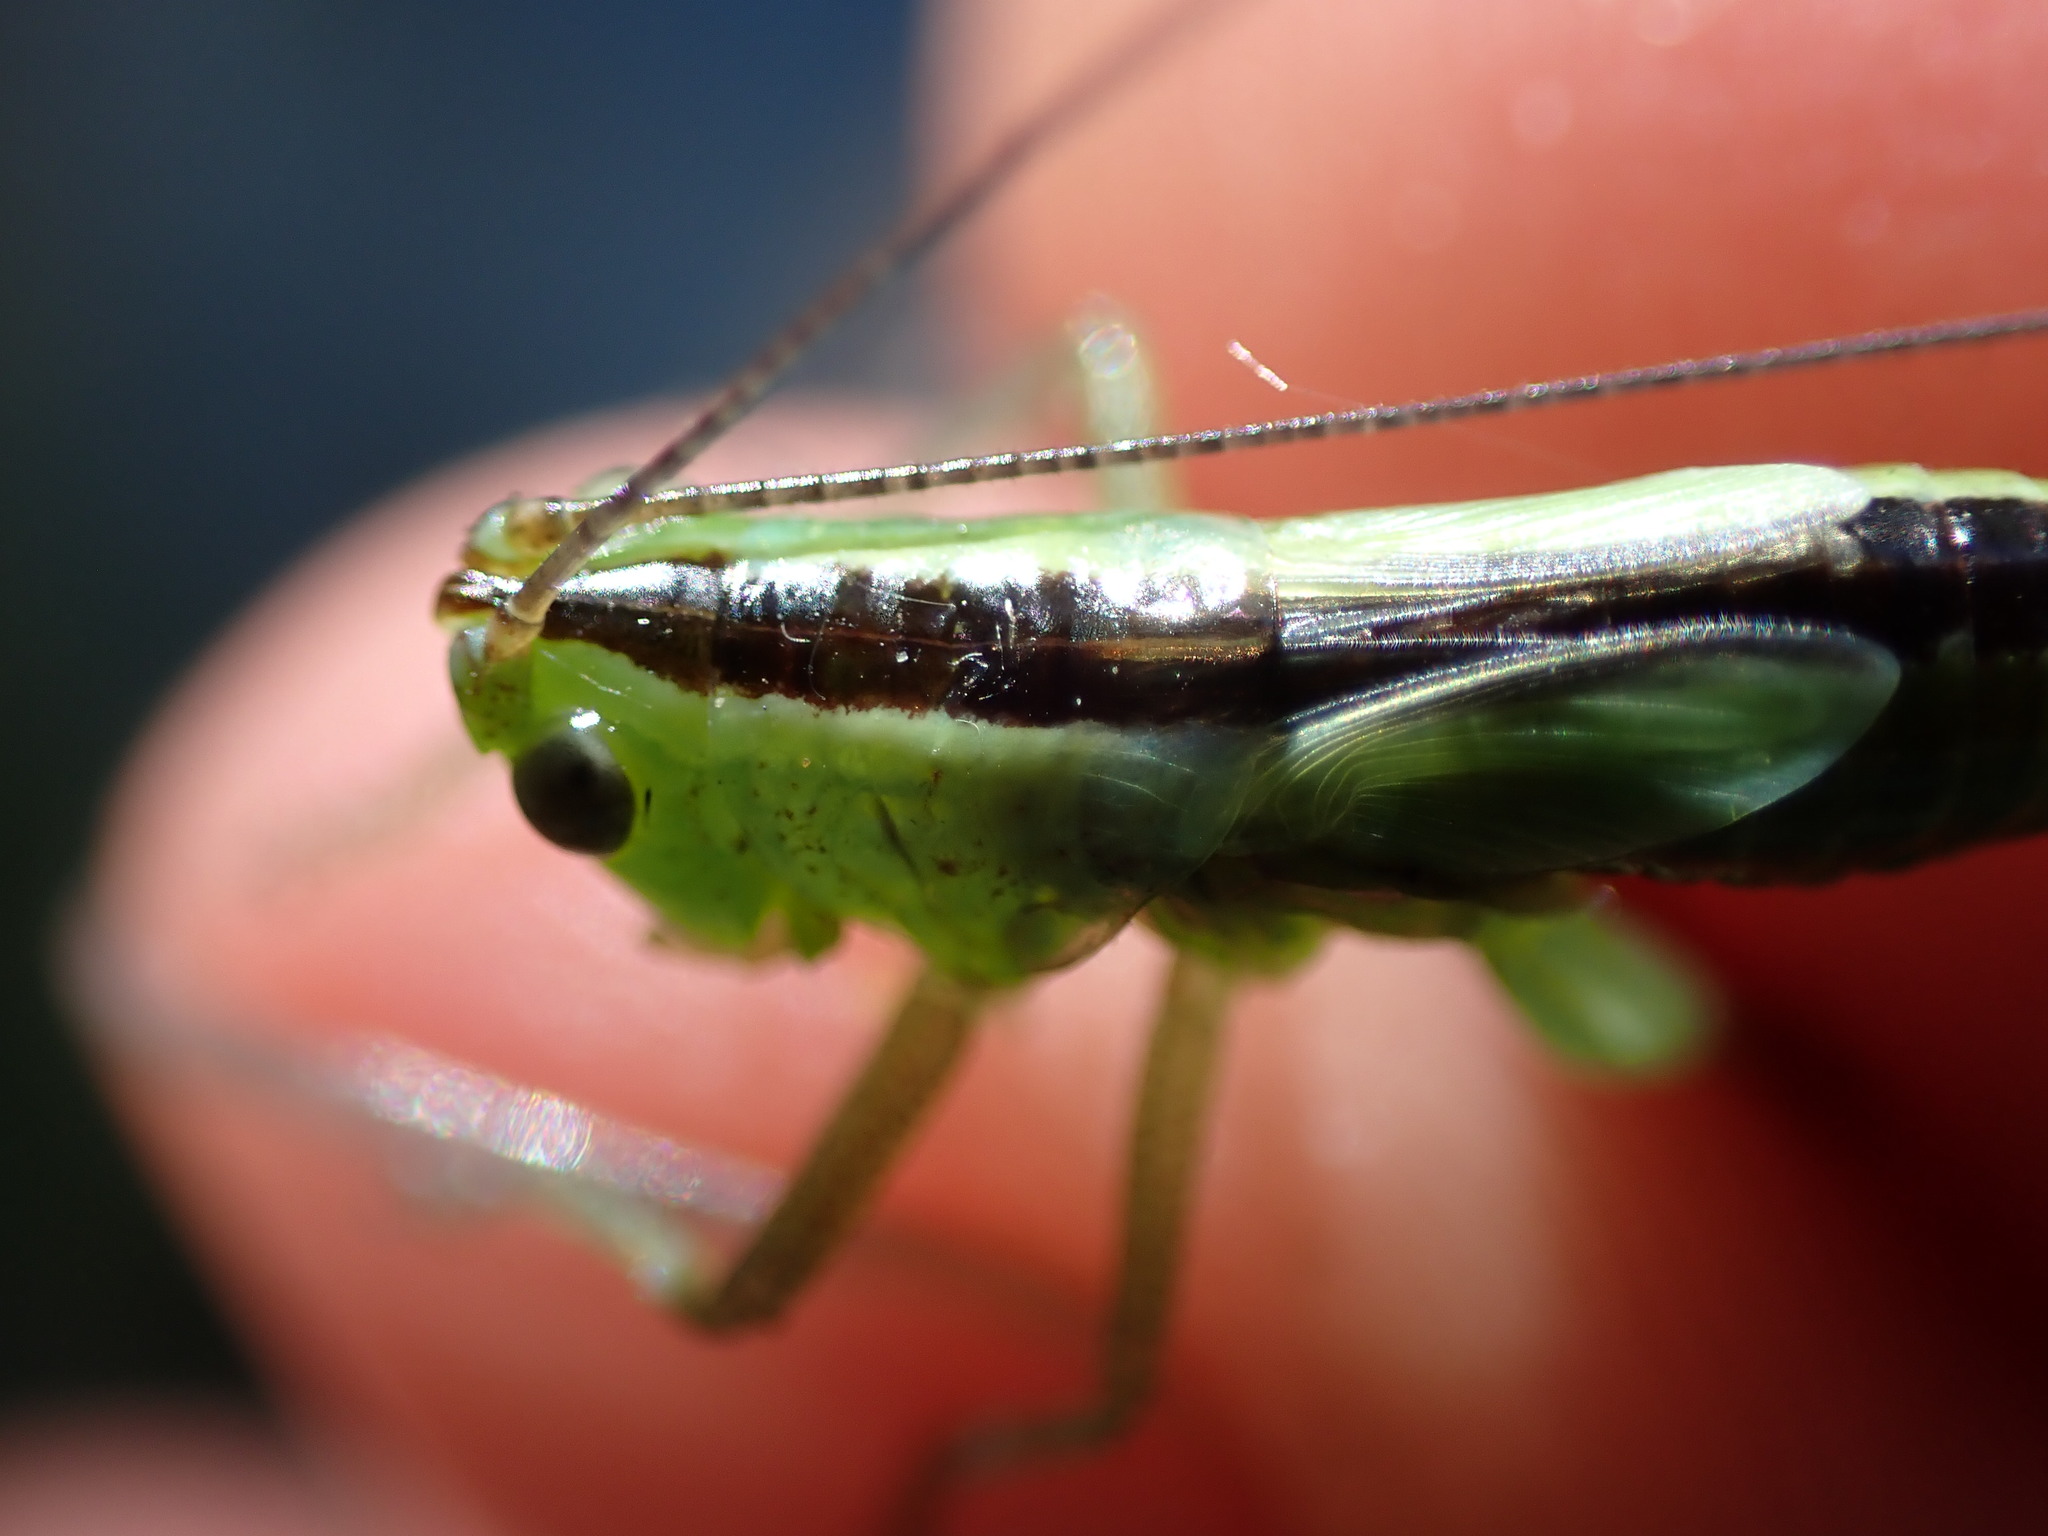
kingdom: Animalia
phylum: Arthropoda
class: Insecta
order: Orthoptera
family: Tettigoniidae
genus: Conocephalus
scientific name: Conocephalus fuscus
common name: Long-winged conehead
